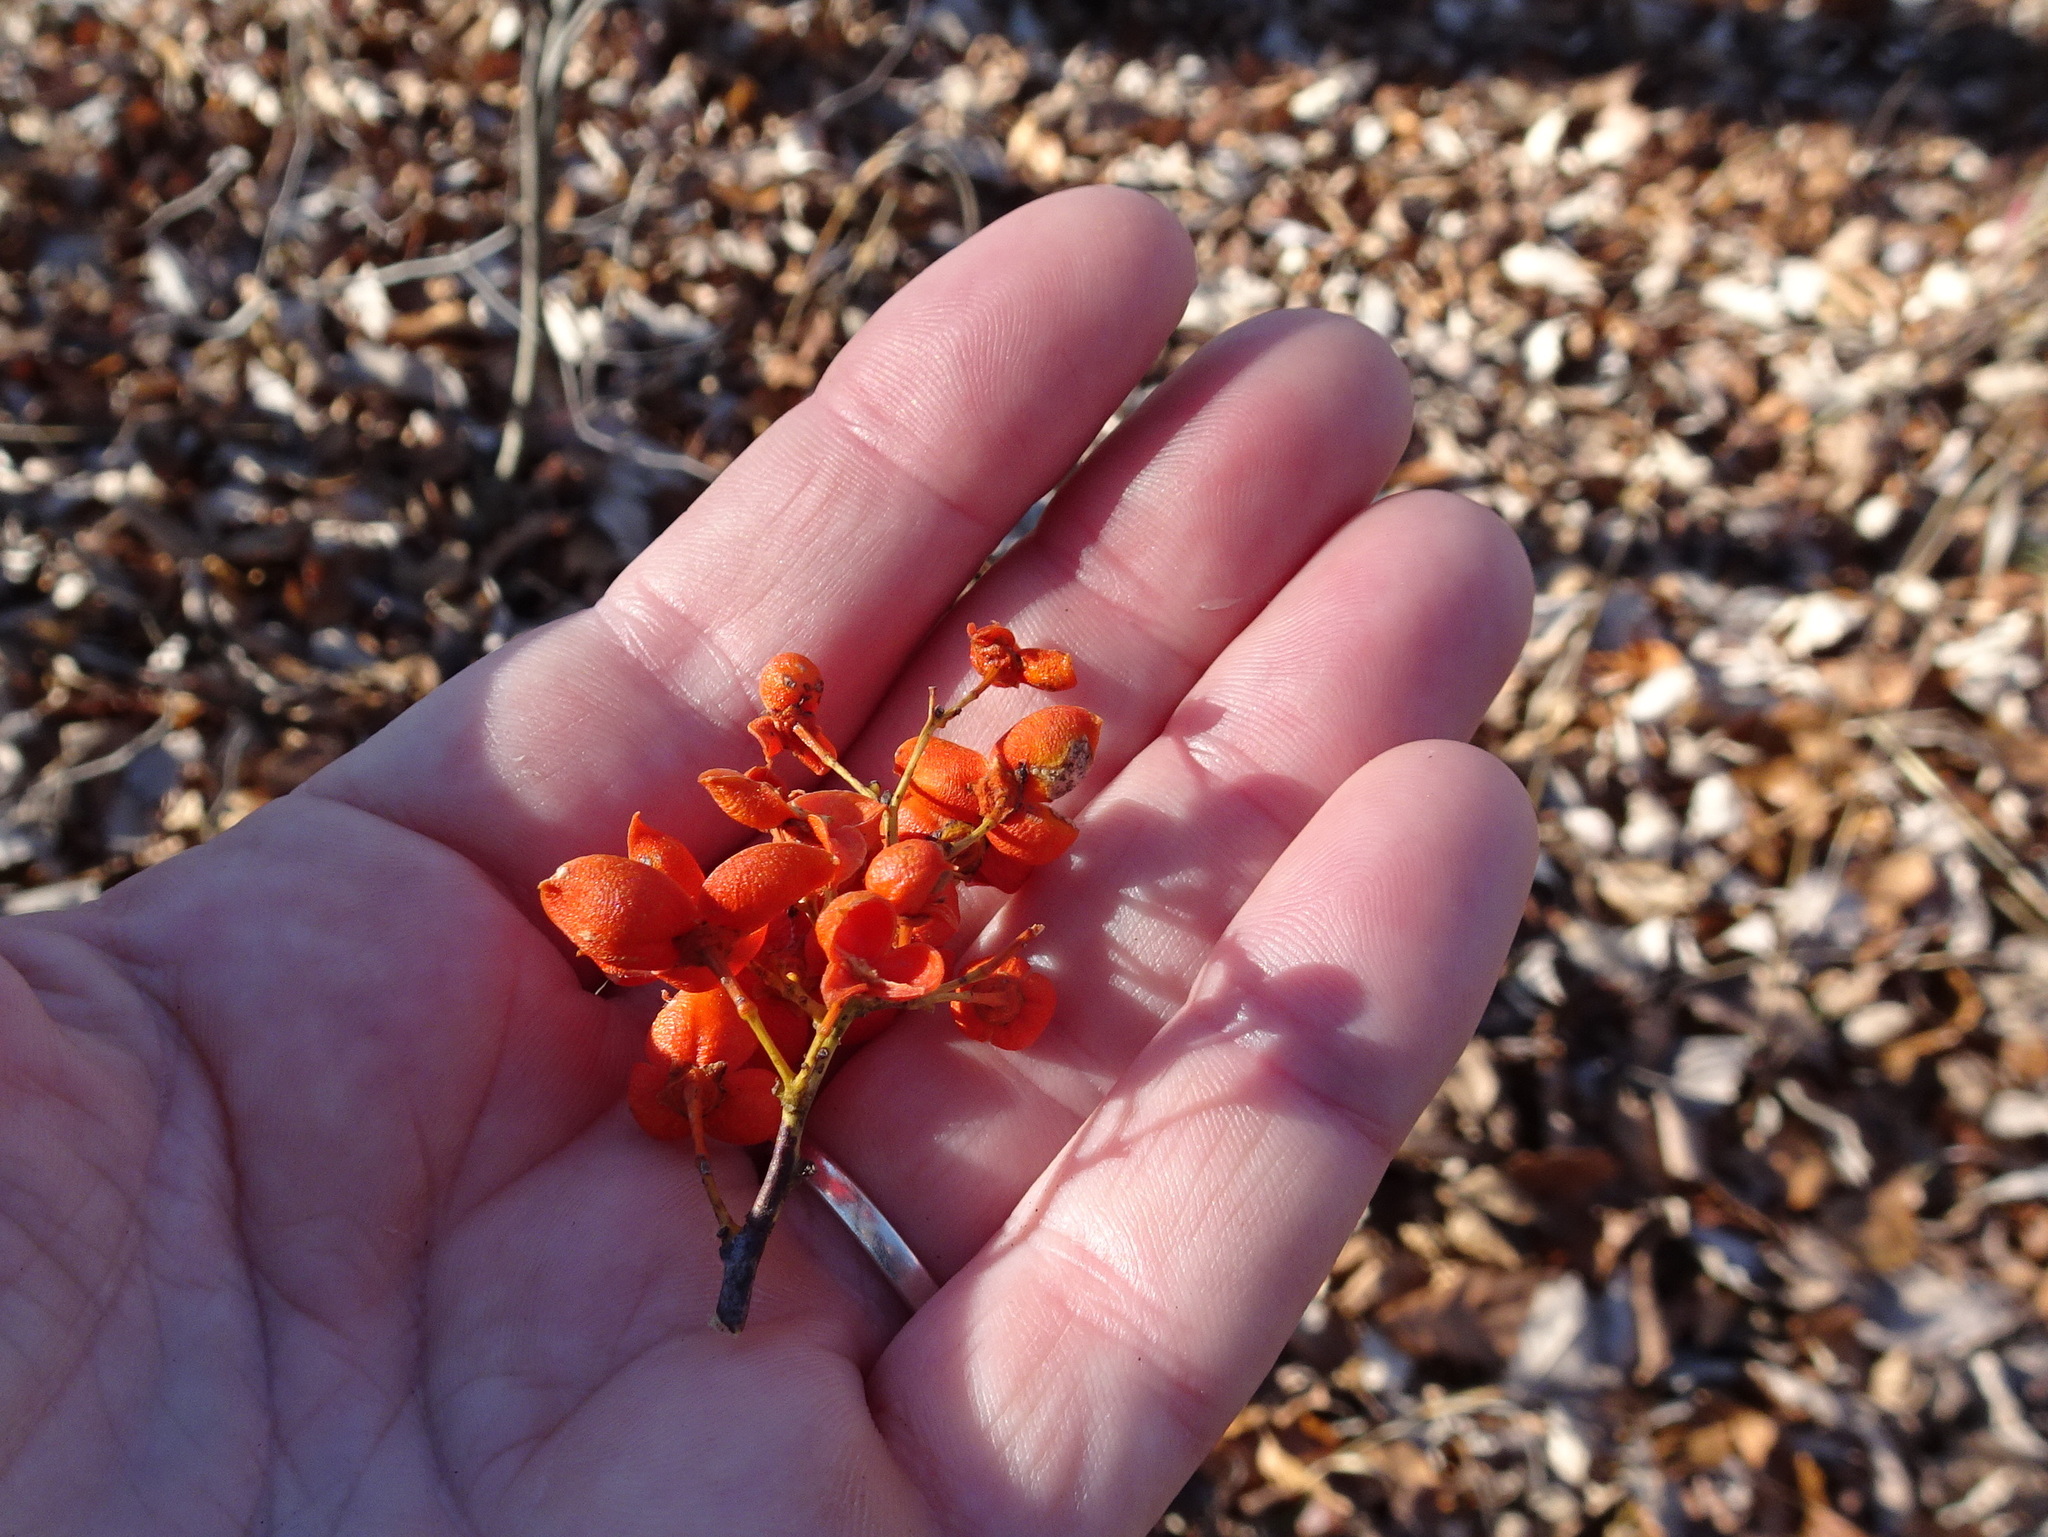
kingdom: Plantae
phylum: Tracheophyta
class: Magnoliopsida
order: Celastrales
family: Celastraceae
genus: Celastrus
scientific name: Celastrus scandens
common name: American bittersweet
